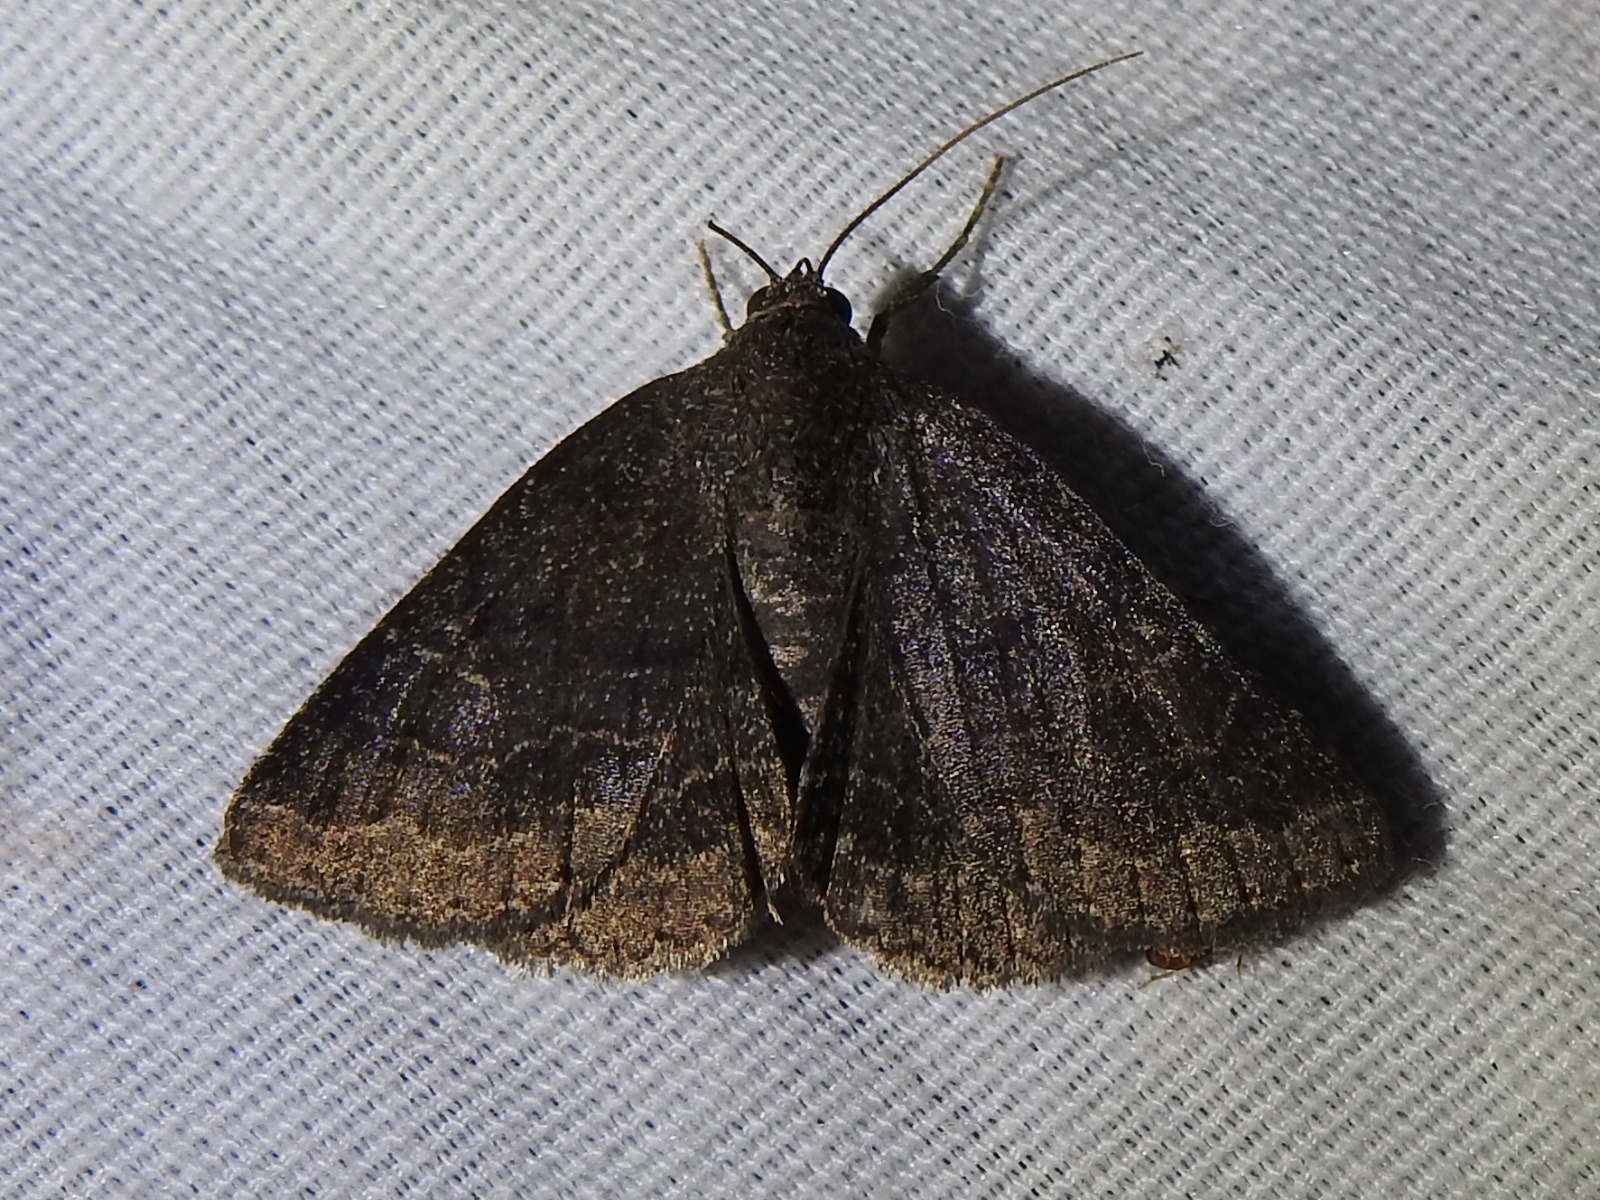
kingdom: Animalia
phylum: Arthropoda
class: Insecta
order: Lepidoptera
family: Erebidae
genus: Matigramma
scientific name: Matigramma pulverilinea
